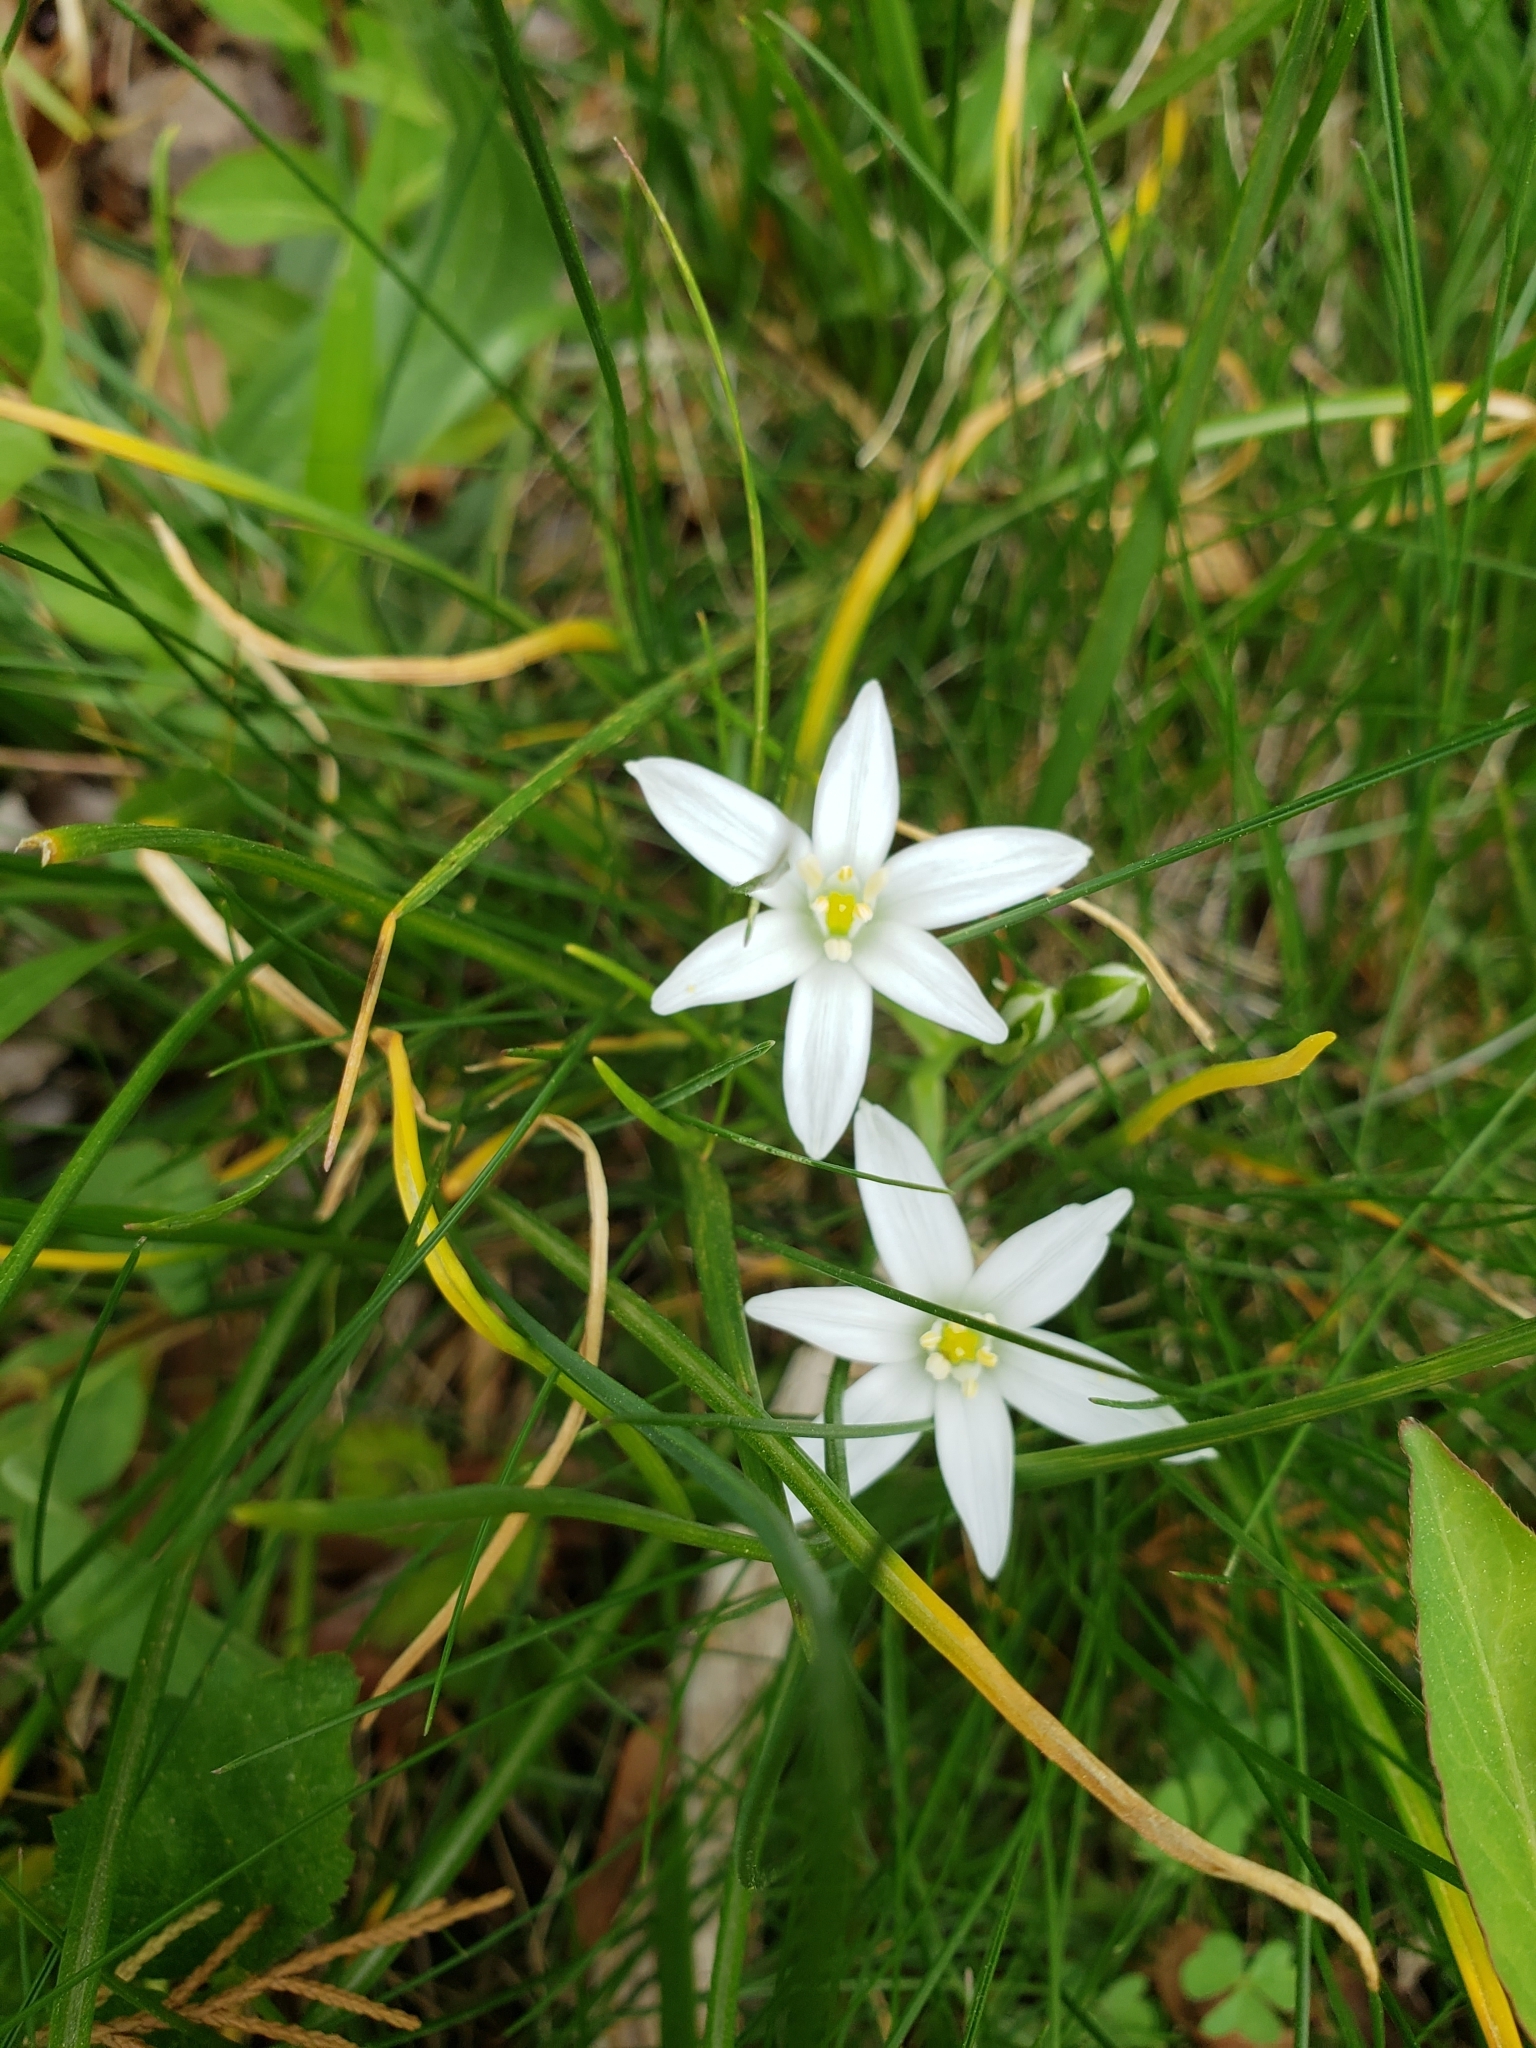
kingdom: Plantae
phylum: Tracheophyta
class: Liliopsida
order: Asparagales
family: Asparagaceae
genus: Ornithogalum
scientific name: Ornithogalum umbellatum
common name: Garden star-of-bethlehem
